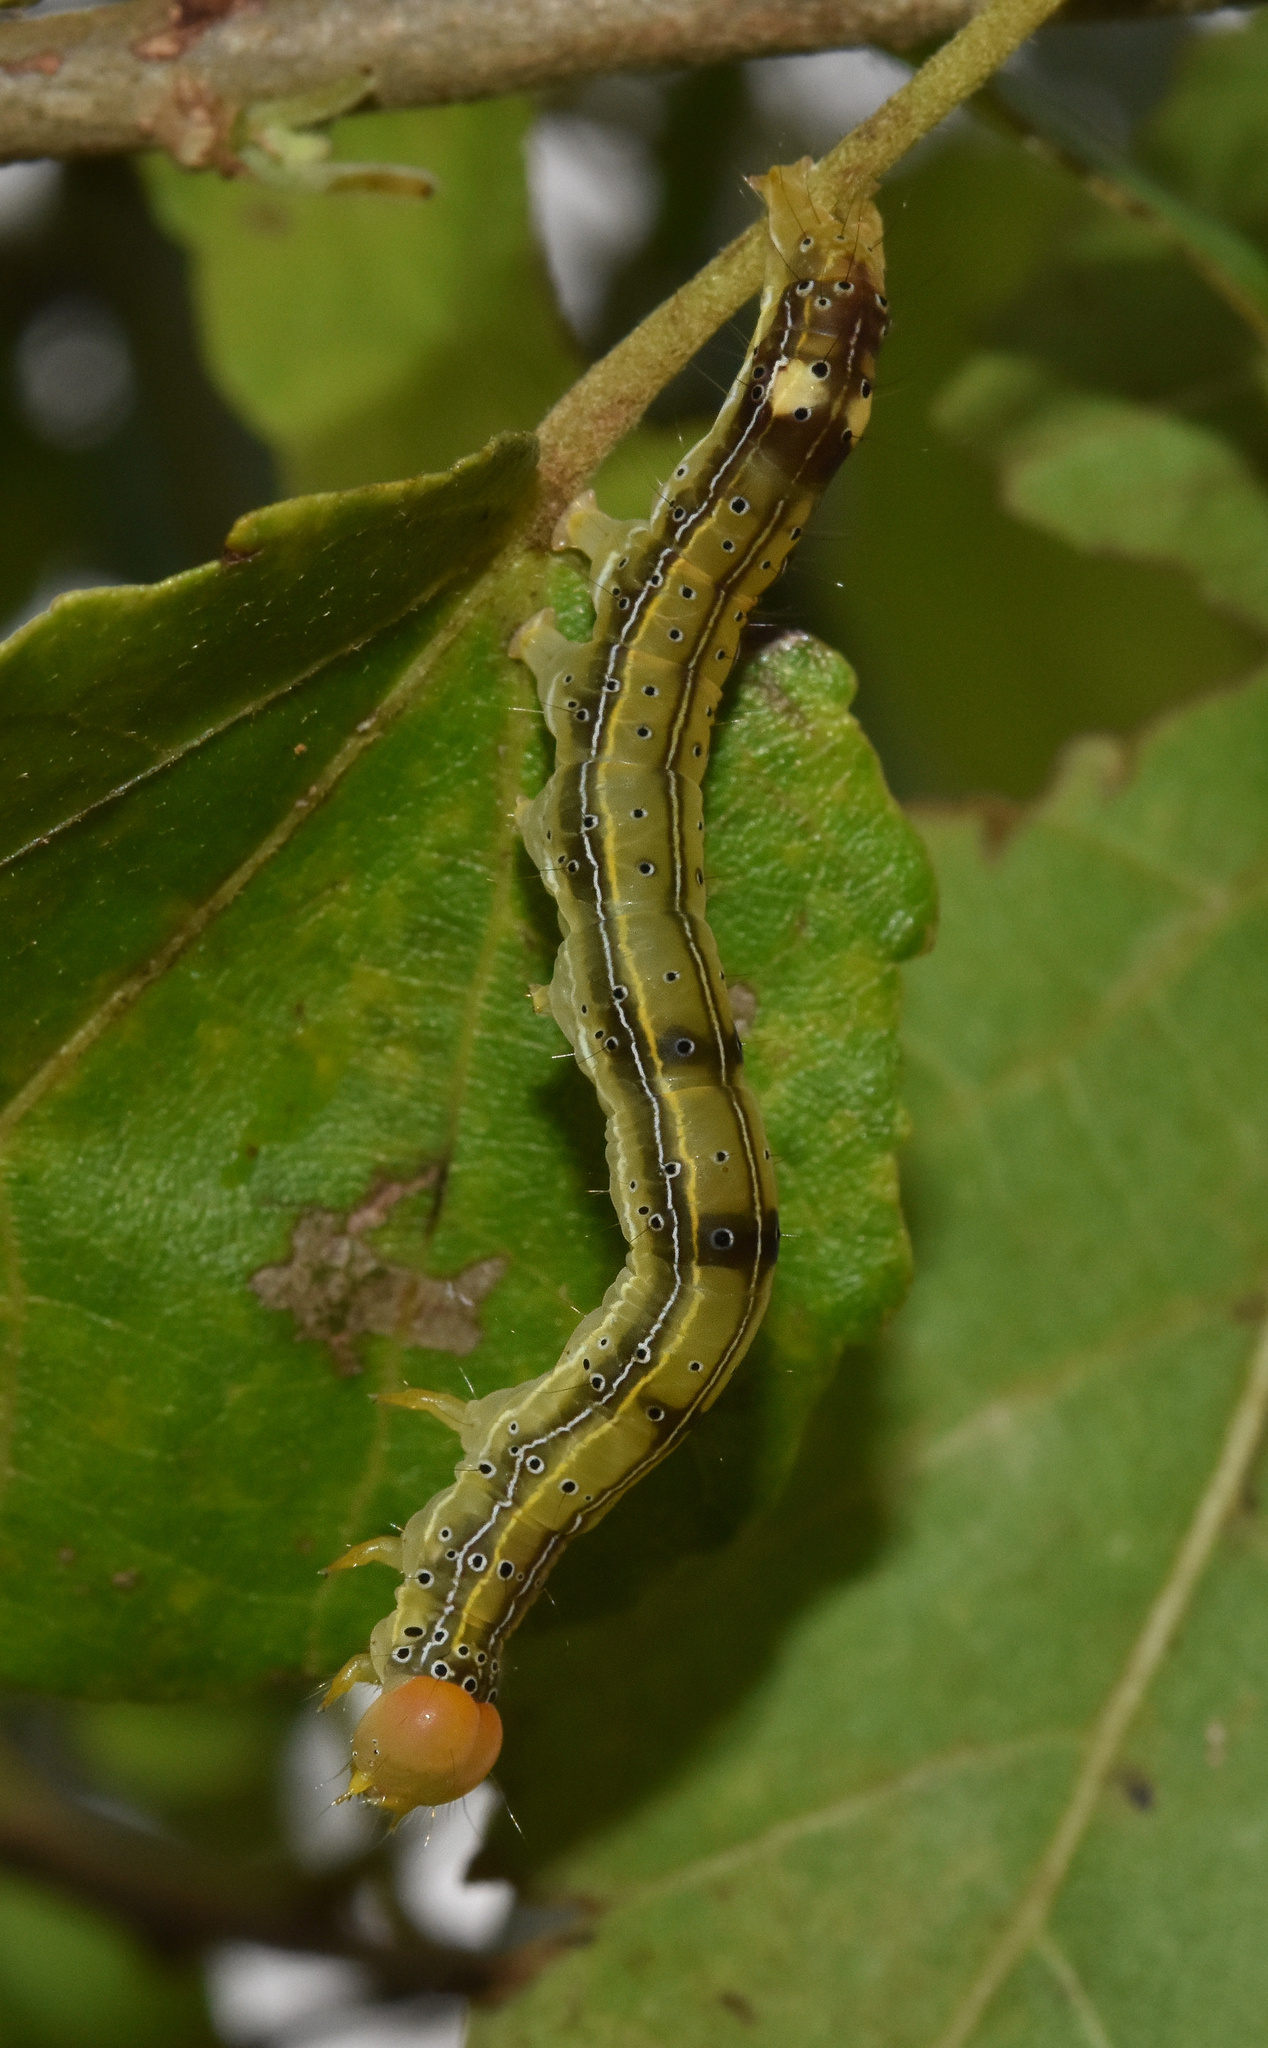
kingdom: Animalia
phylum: Arthropoda
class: Insecta
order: Lepidoptera
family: Erebidae
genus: Anomis
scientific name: Anomis sabulifera
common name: Angled gem
